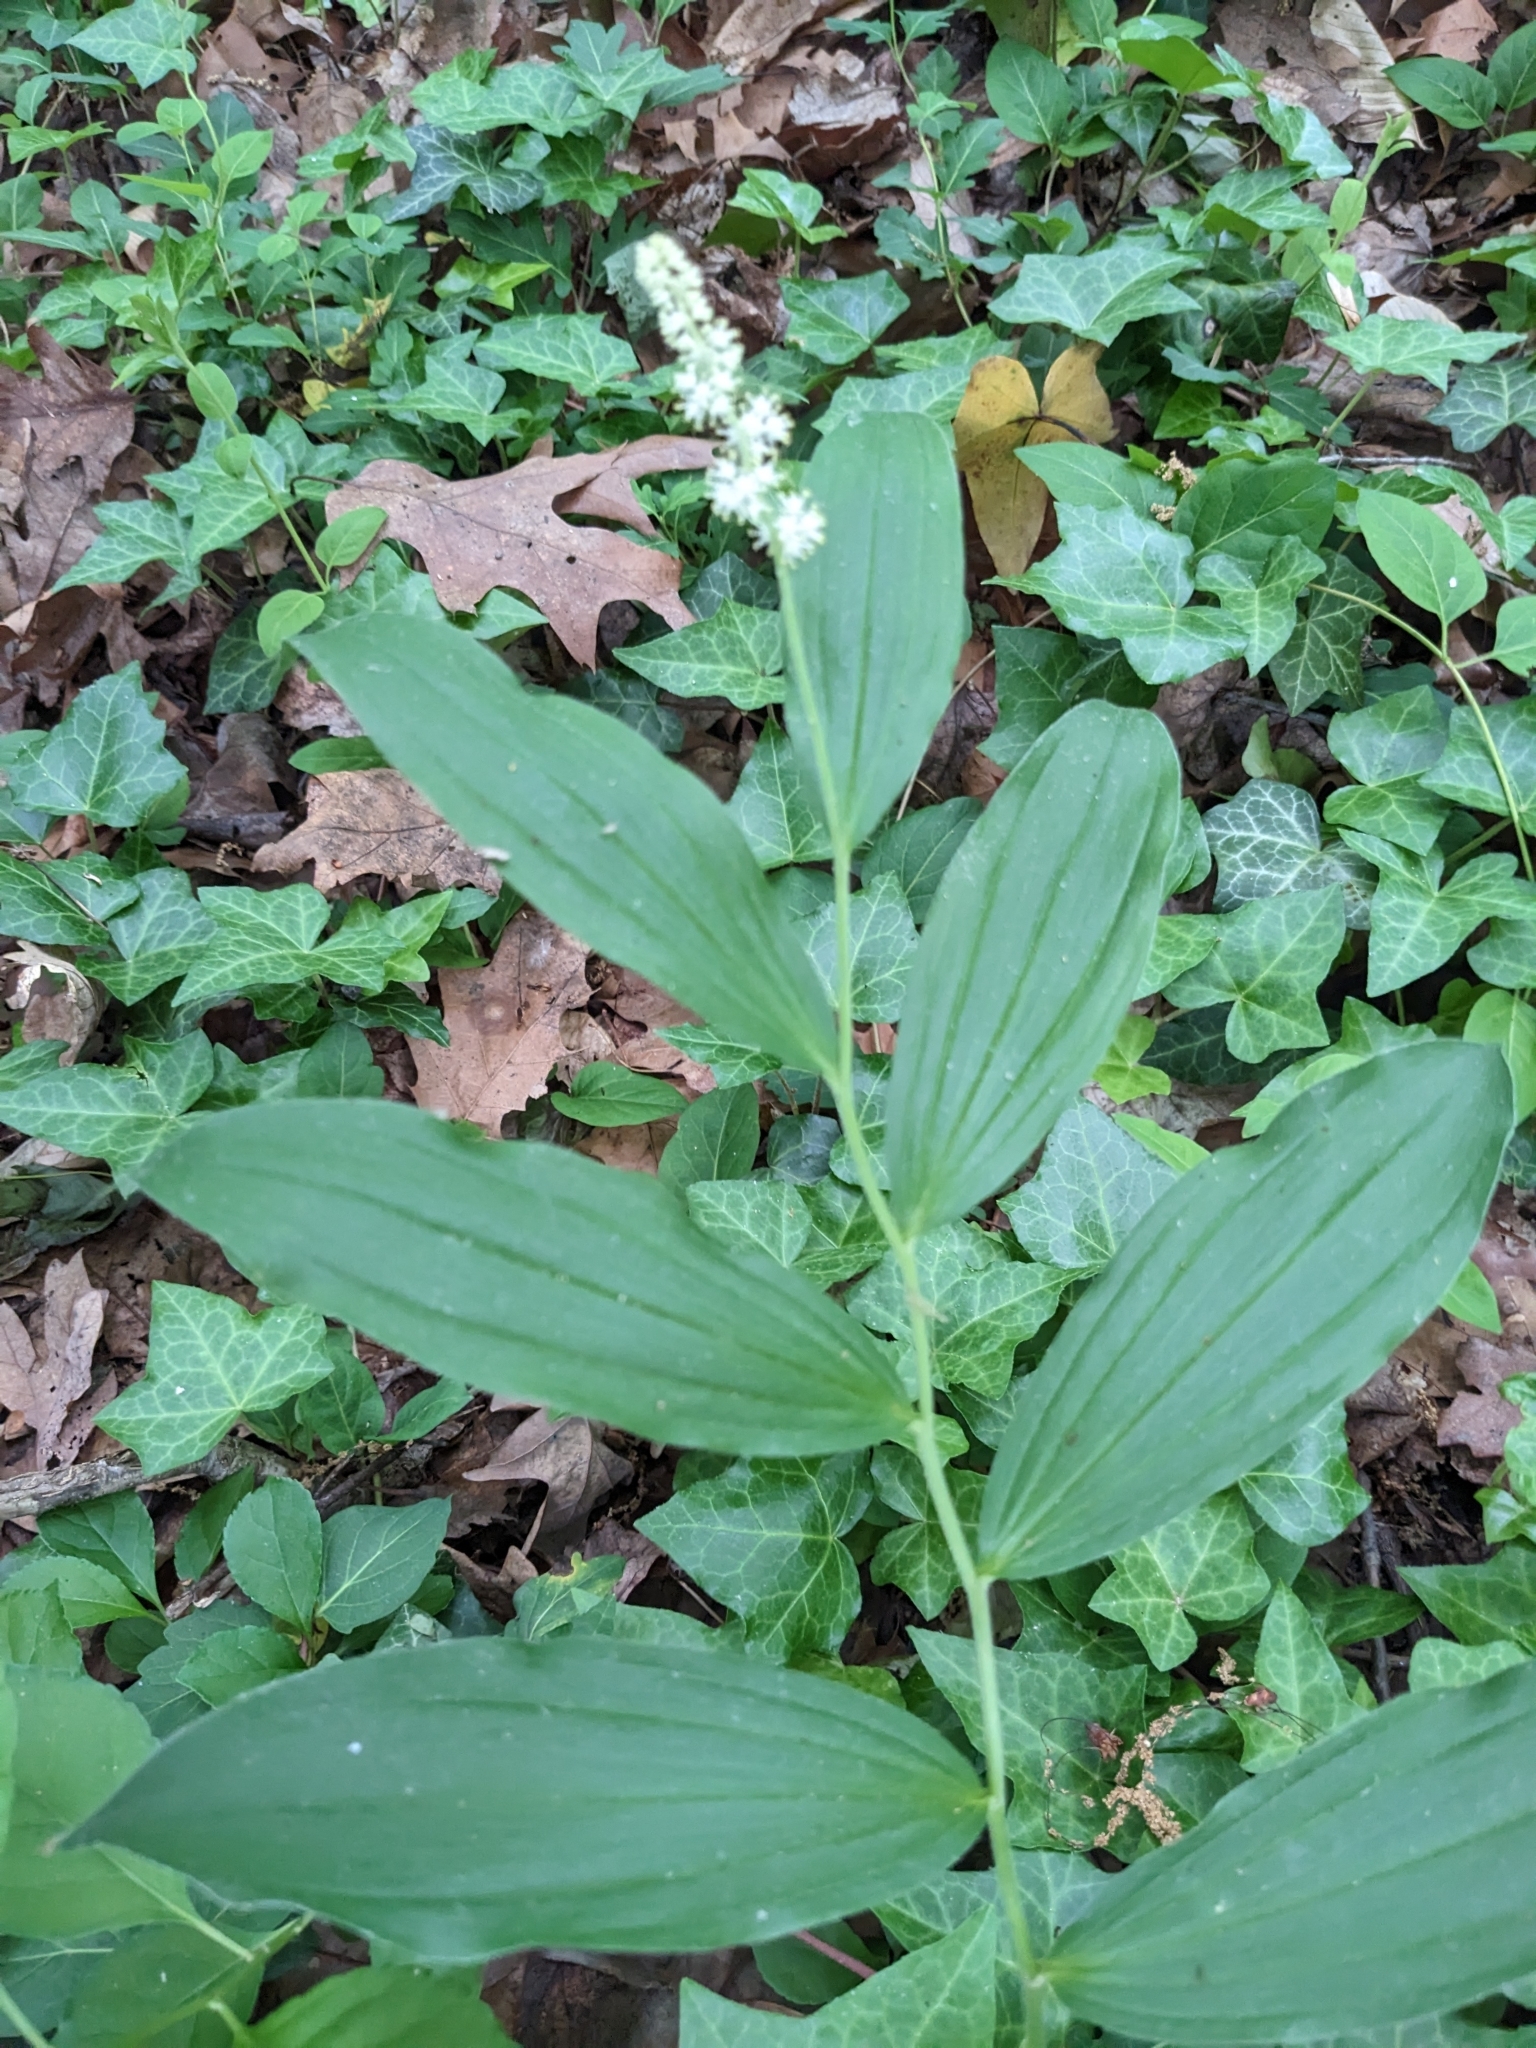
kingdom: Plantae
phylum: Tracheophyta
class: Liliopsida
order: Asparagales
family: Asparagaceae
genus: Maianthemum
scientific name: Maianthemum racemosum
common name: False spikenard
